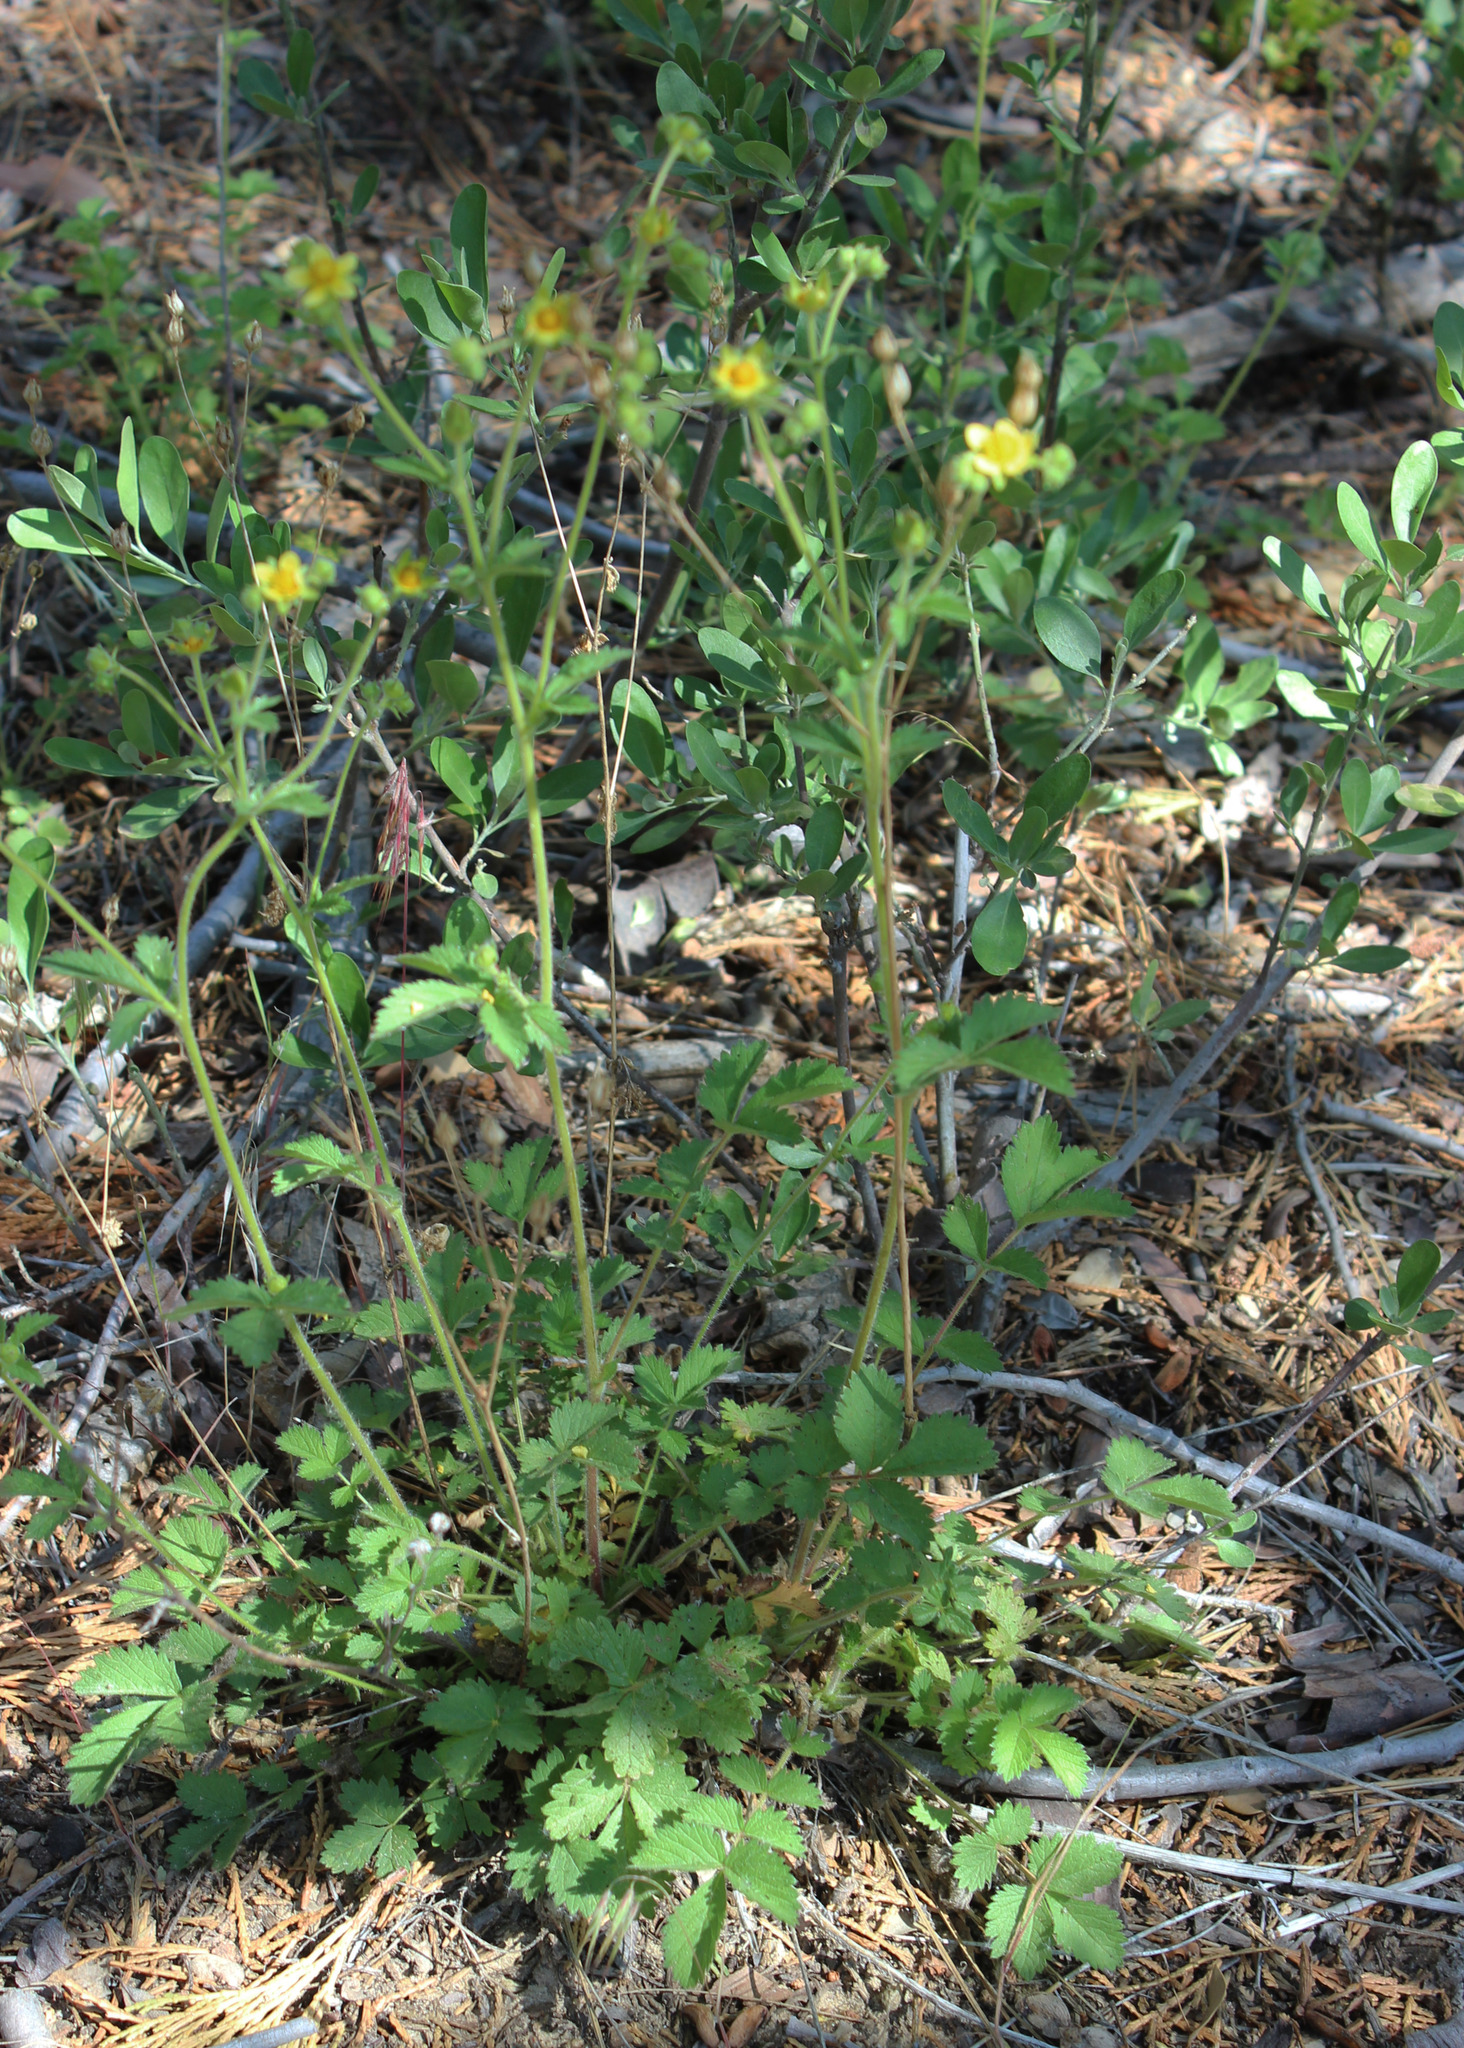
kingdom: Plantae
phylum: Tracheophyta
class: Magnoliopsida
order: Rosales
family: Rosaceae
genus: Drymocallis
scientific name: Drymocallis glandulosa
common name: Sticky cinquefoil
